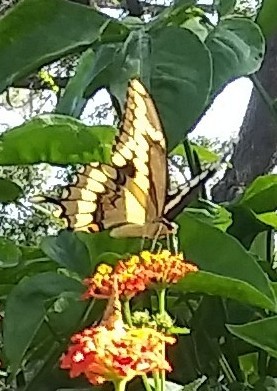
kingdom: Animalia
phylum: Arthropoda
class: Insecta
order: Lepidoptera
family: Papilionidae
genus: Papilio
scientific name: Papilio cresphontes
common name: Giant swallowtail
